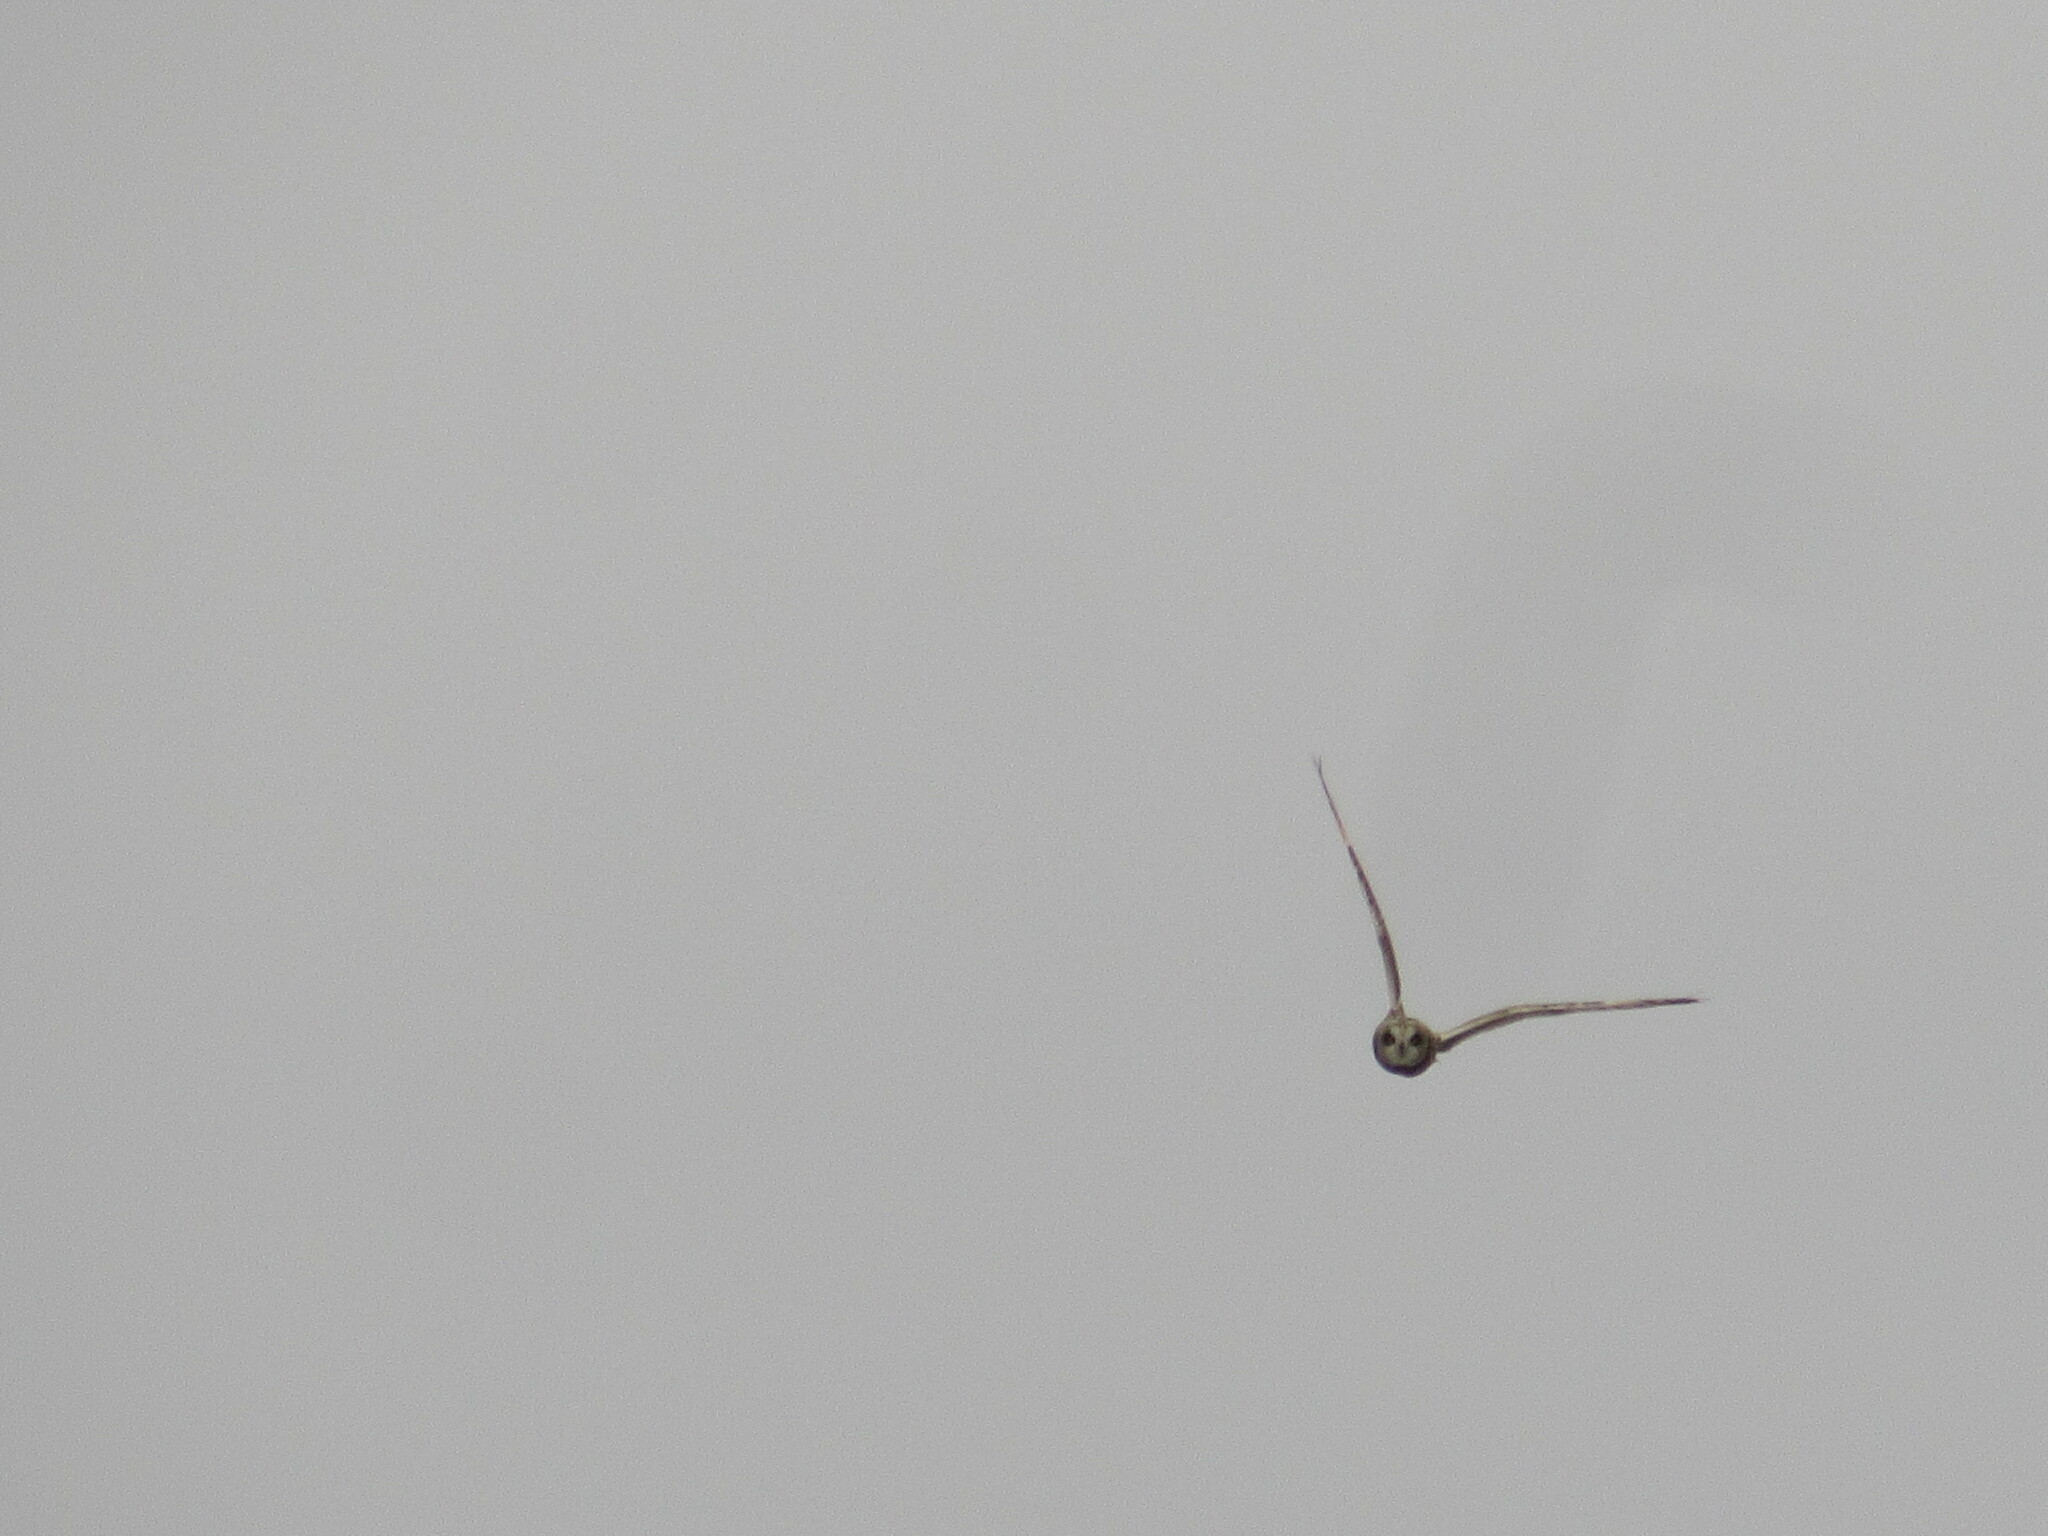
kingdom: Animalia
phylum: Chordata
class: Aves
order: Strigiformes
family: Strigidae
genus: Asio
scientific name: Asio flammeus
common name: Short-eared owl
